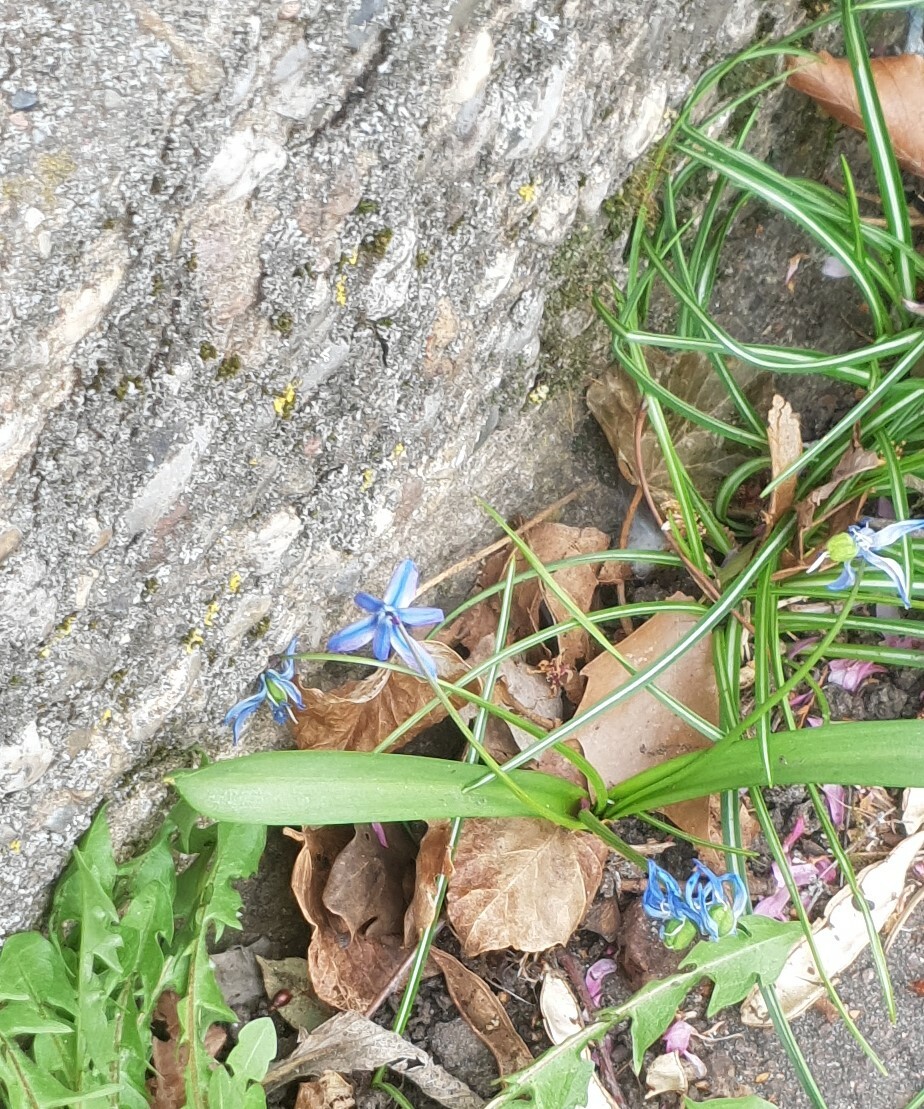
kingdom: Plantae
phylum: Tracheophyta
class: Liliopsida
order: Asparagales
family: Asparagaceae
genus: Scilla
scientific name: Scilla siberica
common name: Siberian squill
